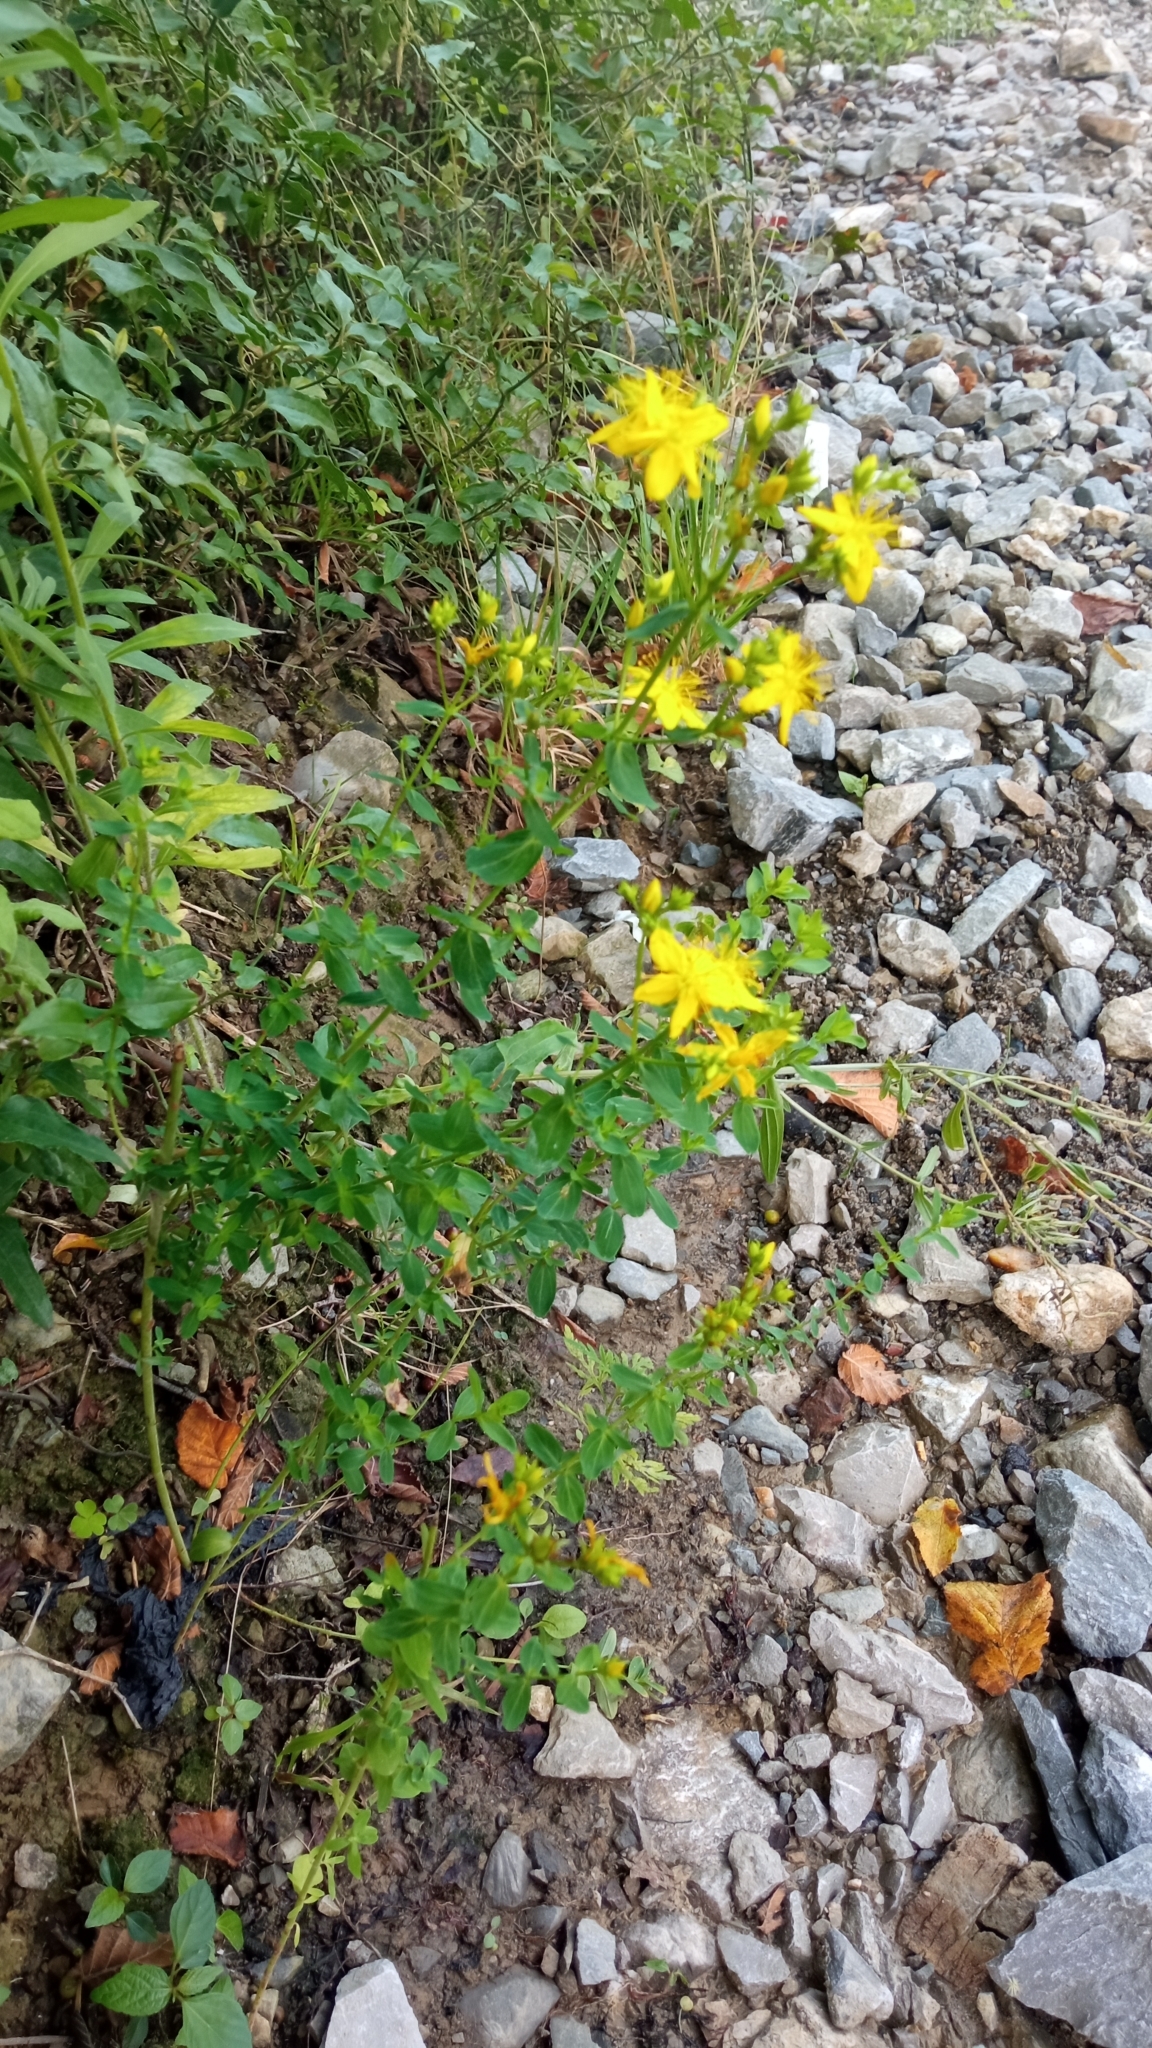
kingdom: Plantae
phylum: Tracheophyta
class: Magnoliopsida
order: Malpighiales
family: Hypericaceae
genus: Hypericum
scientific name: Hypericum perforatum
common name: Common st. johnswort
